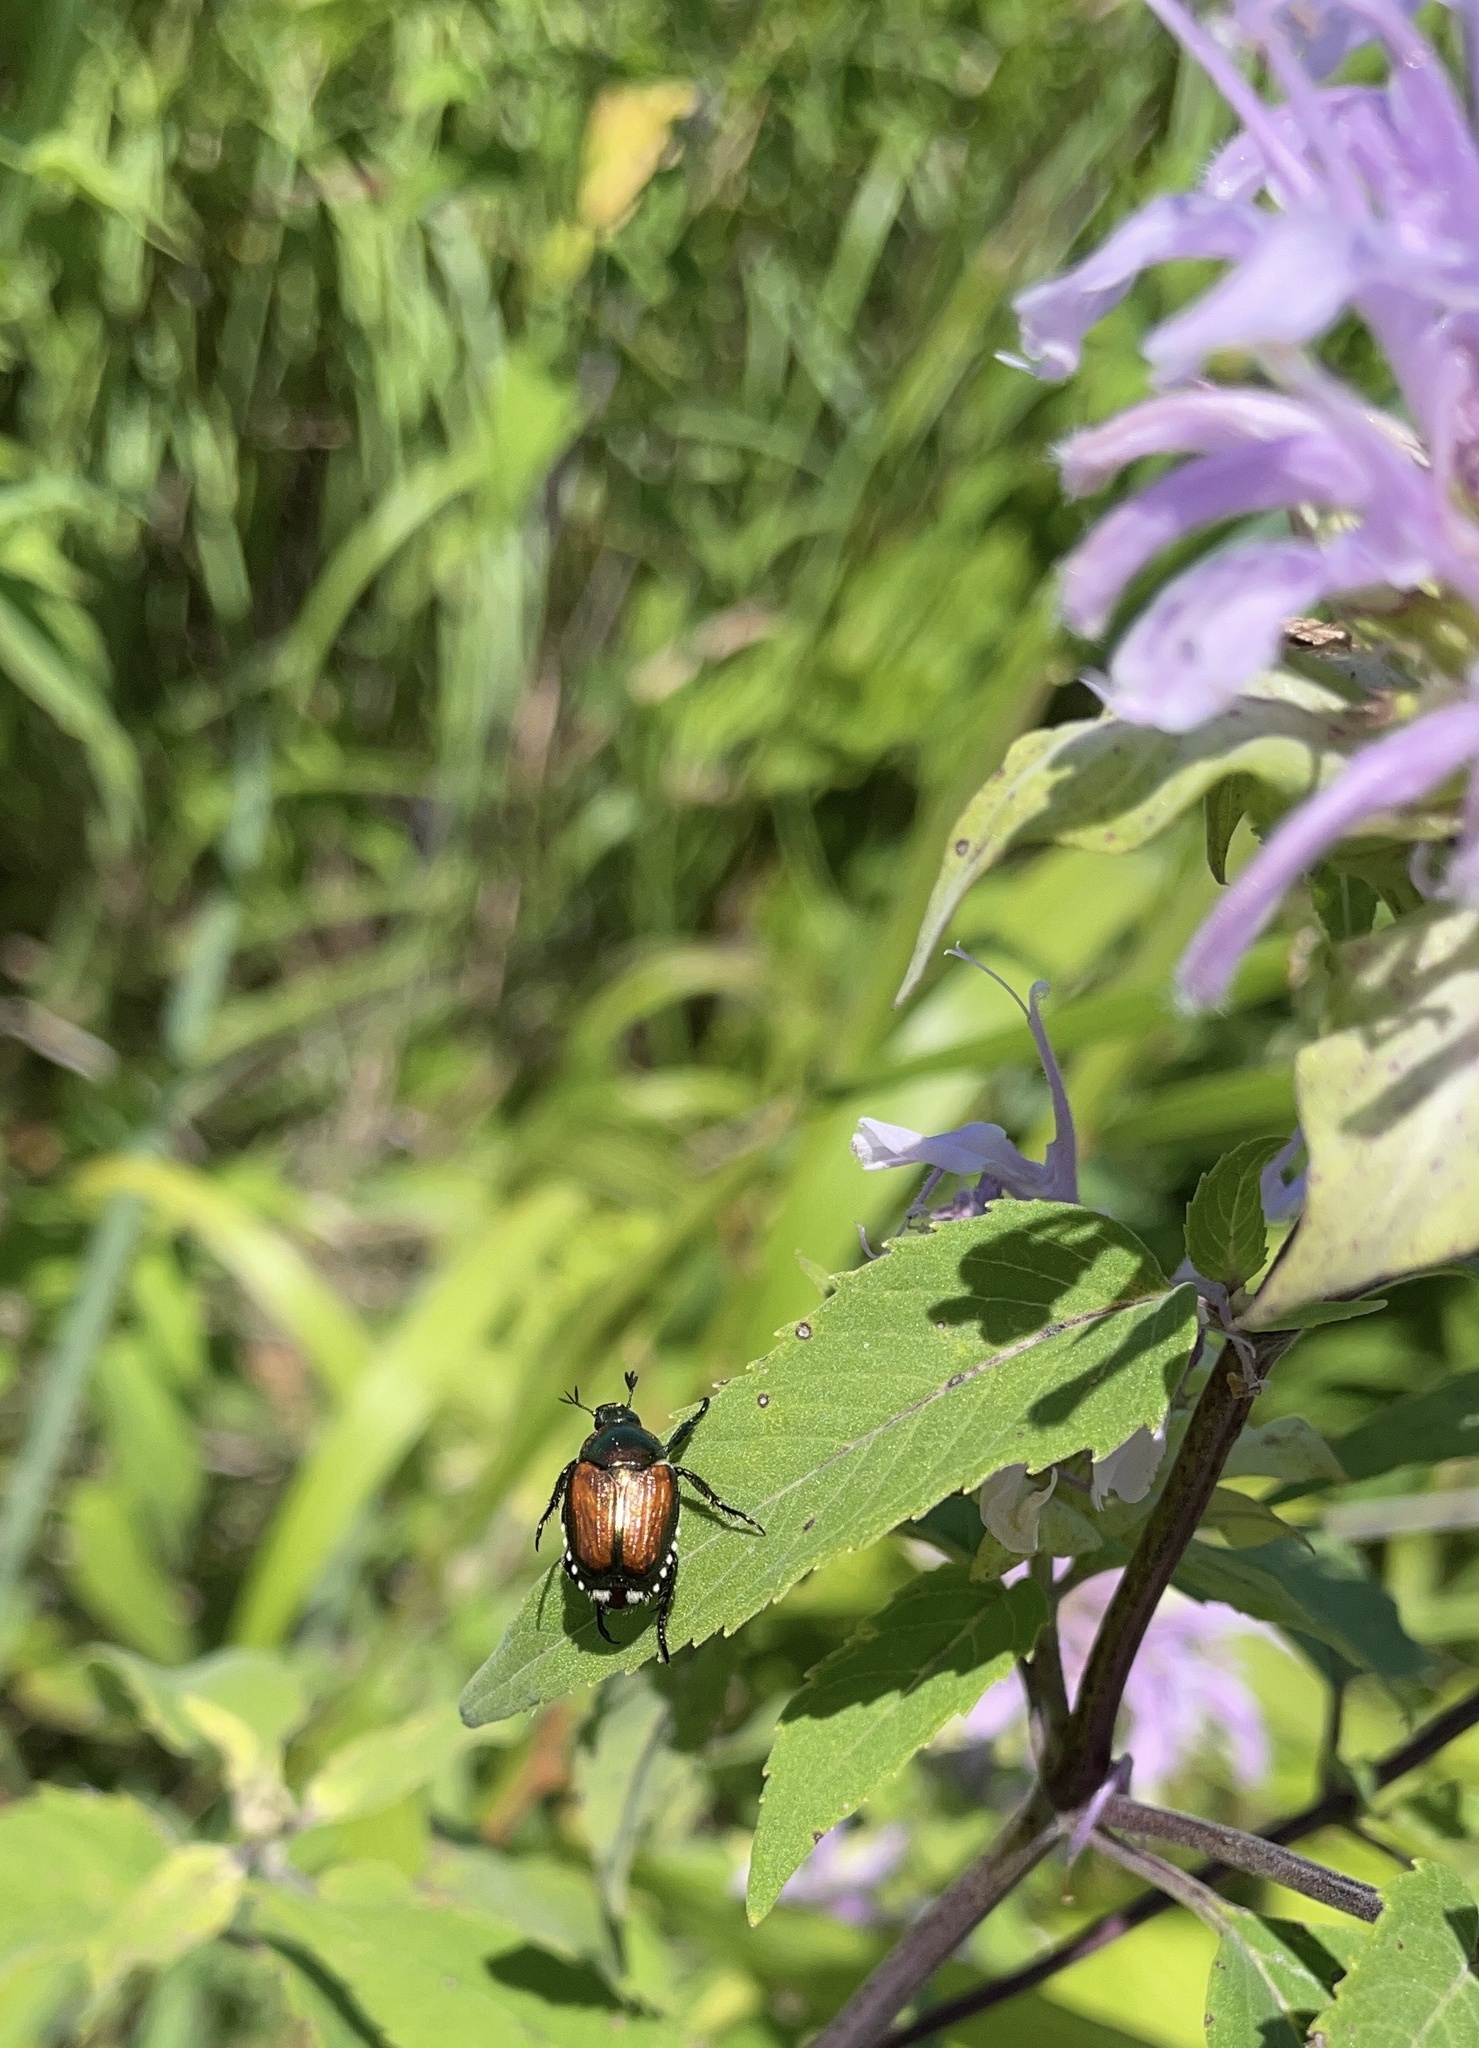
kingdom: Animalia
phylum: Arthropoda
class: Insecta
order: Coleoptera
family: Scarabaeidae
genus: Popillia
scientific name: Popillia japonica
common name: Japanese beetle
